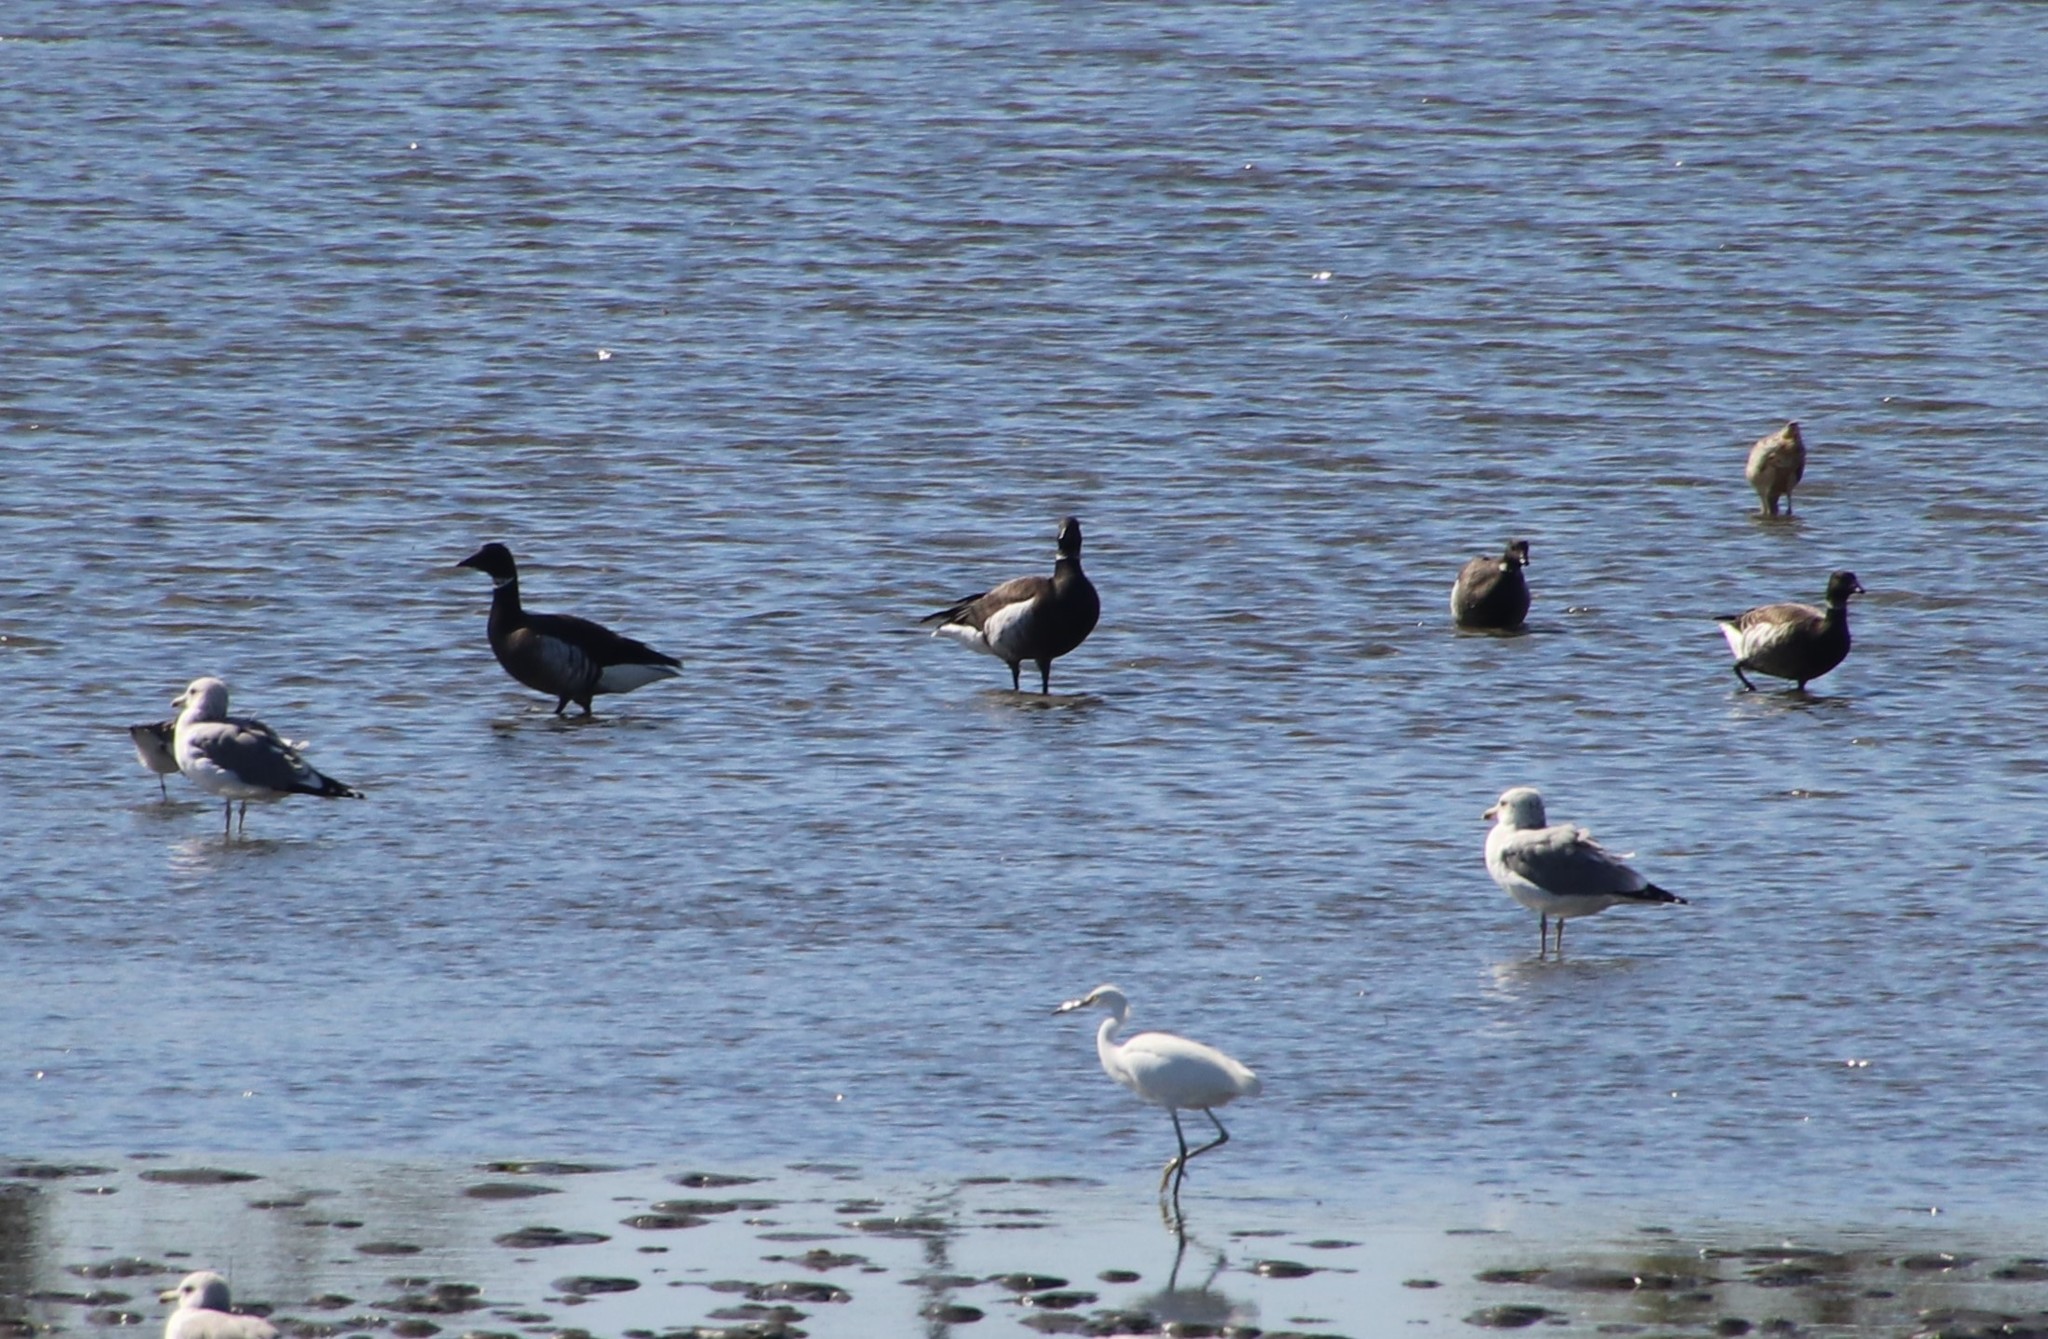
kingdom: Animalia
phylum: Chordata
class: Aves
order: Anseriformes
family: Anatidae
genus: Branta
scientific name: Branta bernicla
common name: Brant goose
